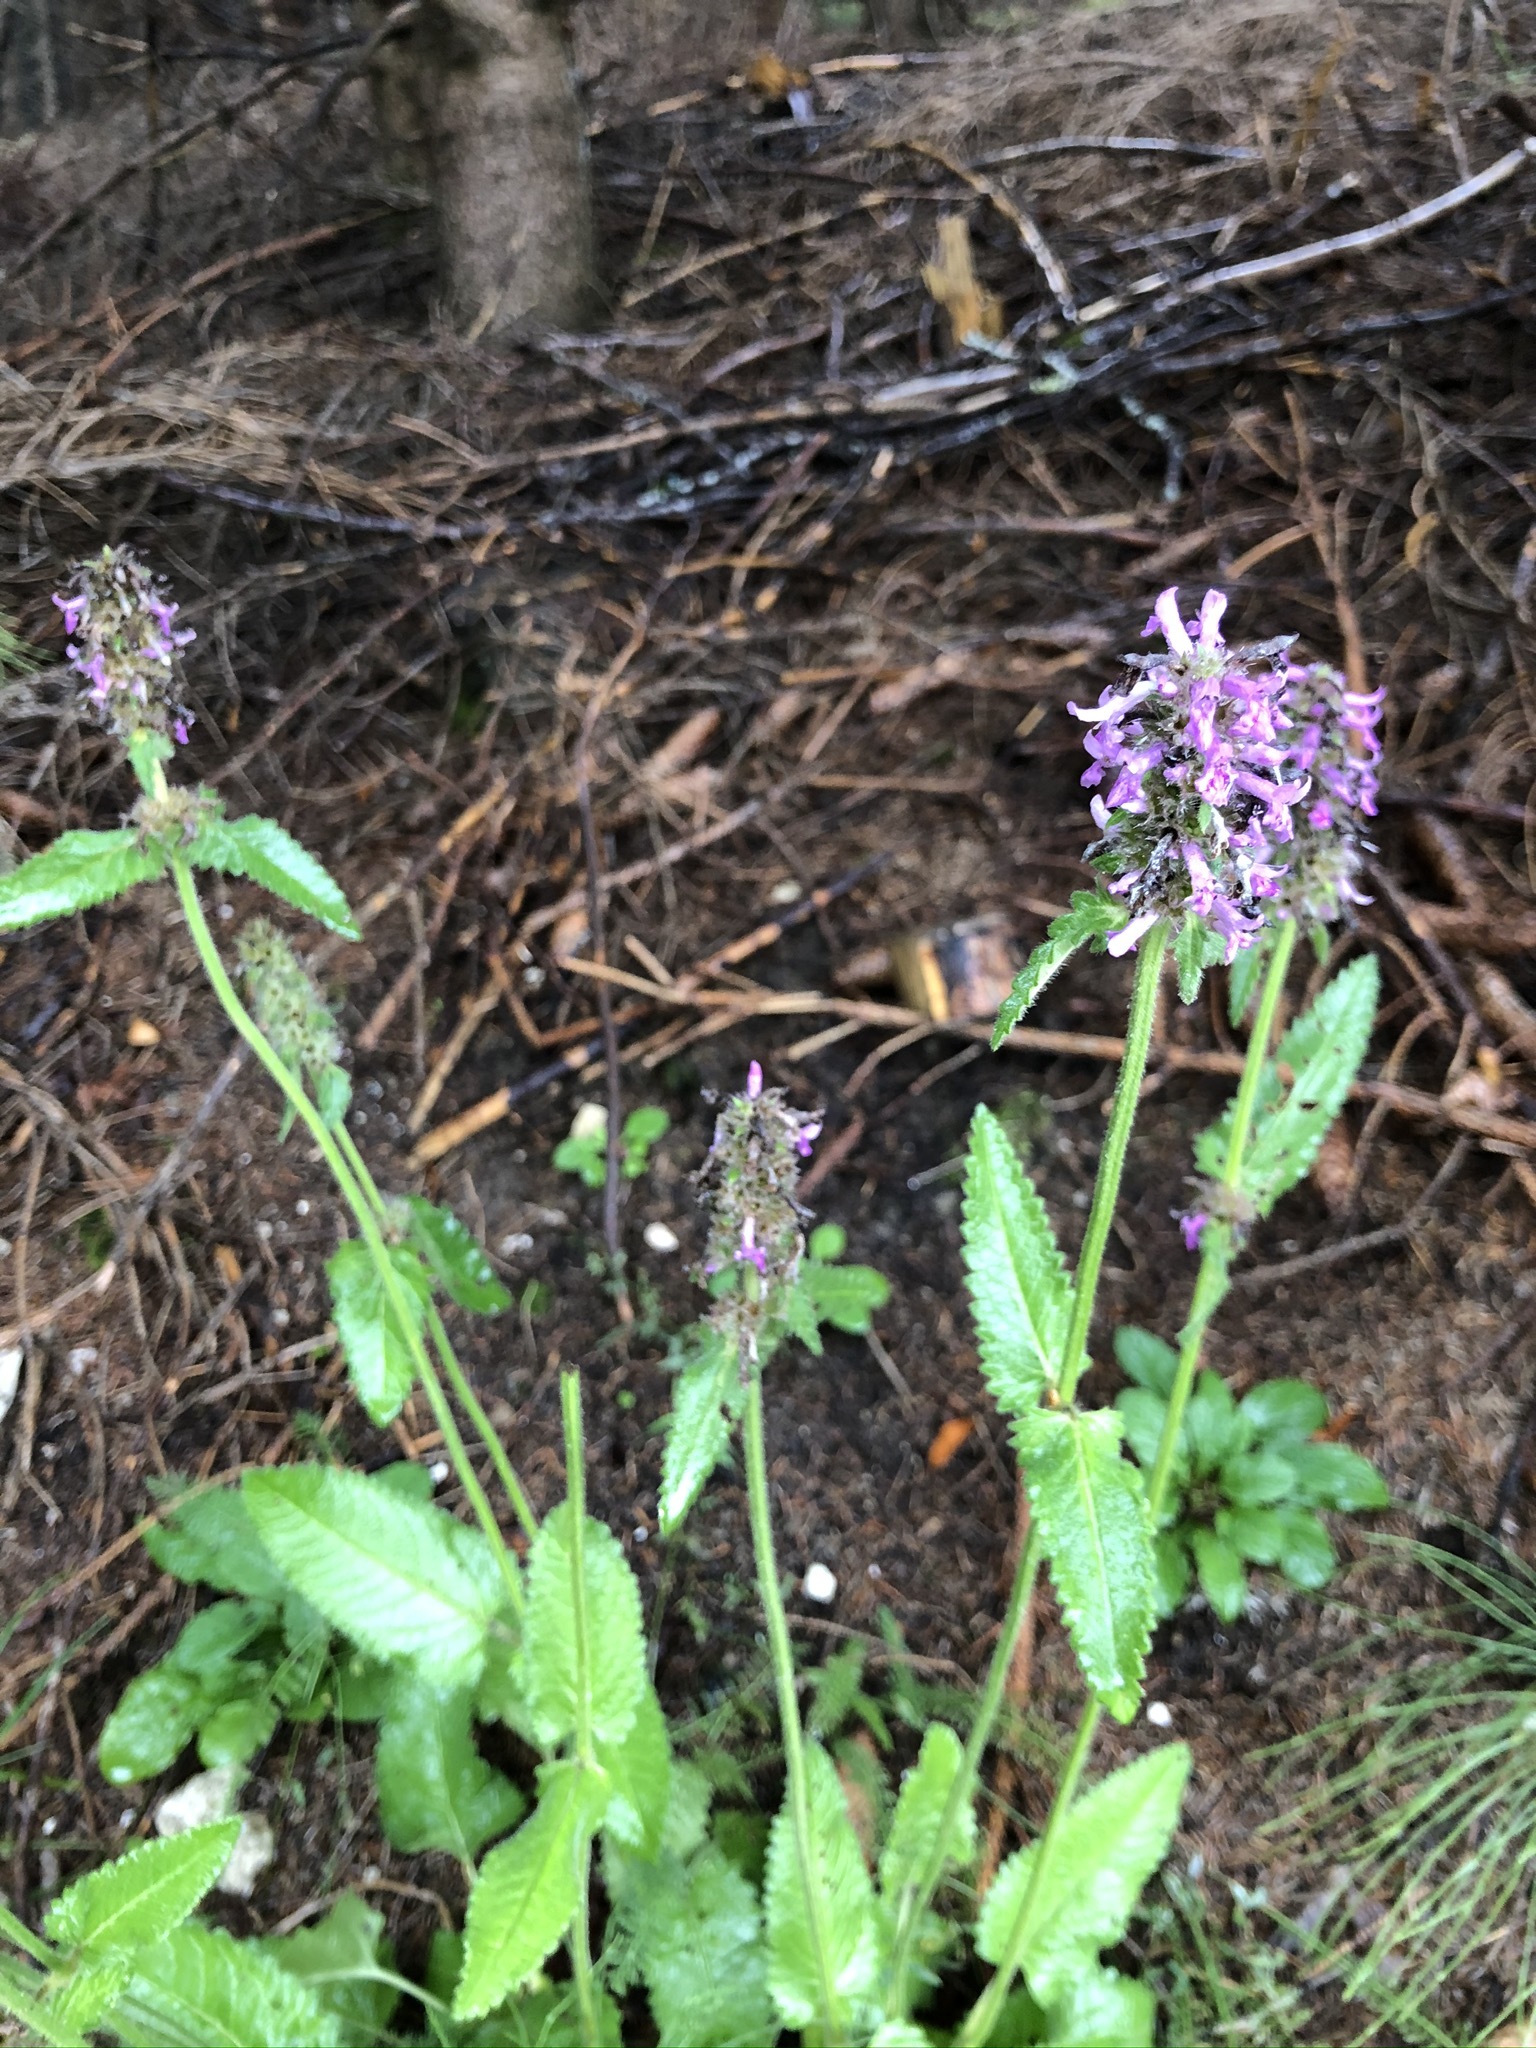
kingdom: Plantae
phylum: Tracheophyta
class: Magnoliopsida
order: Lamiales
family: Lamiaceae
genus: Betonica
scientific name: Betonica officinalis
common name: Bishop's-wort
